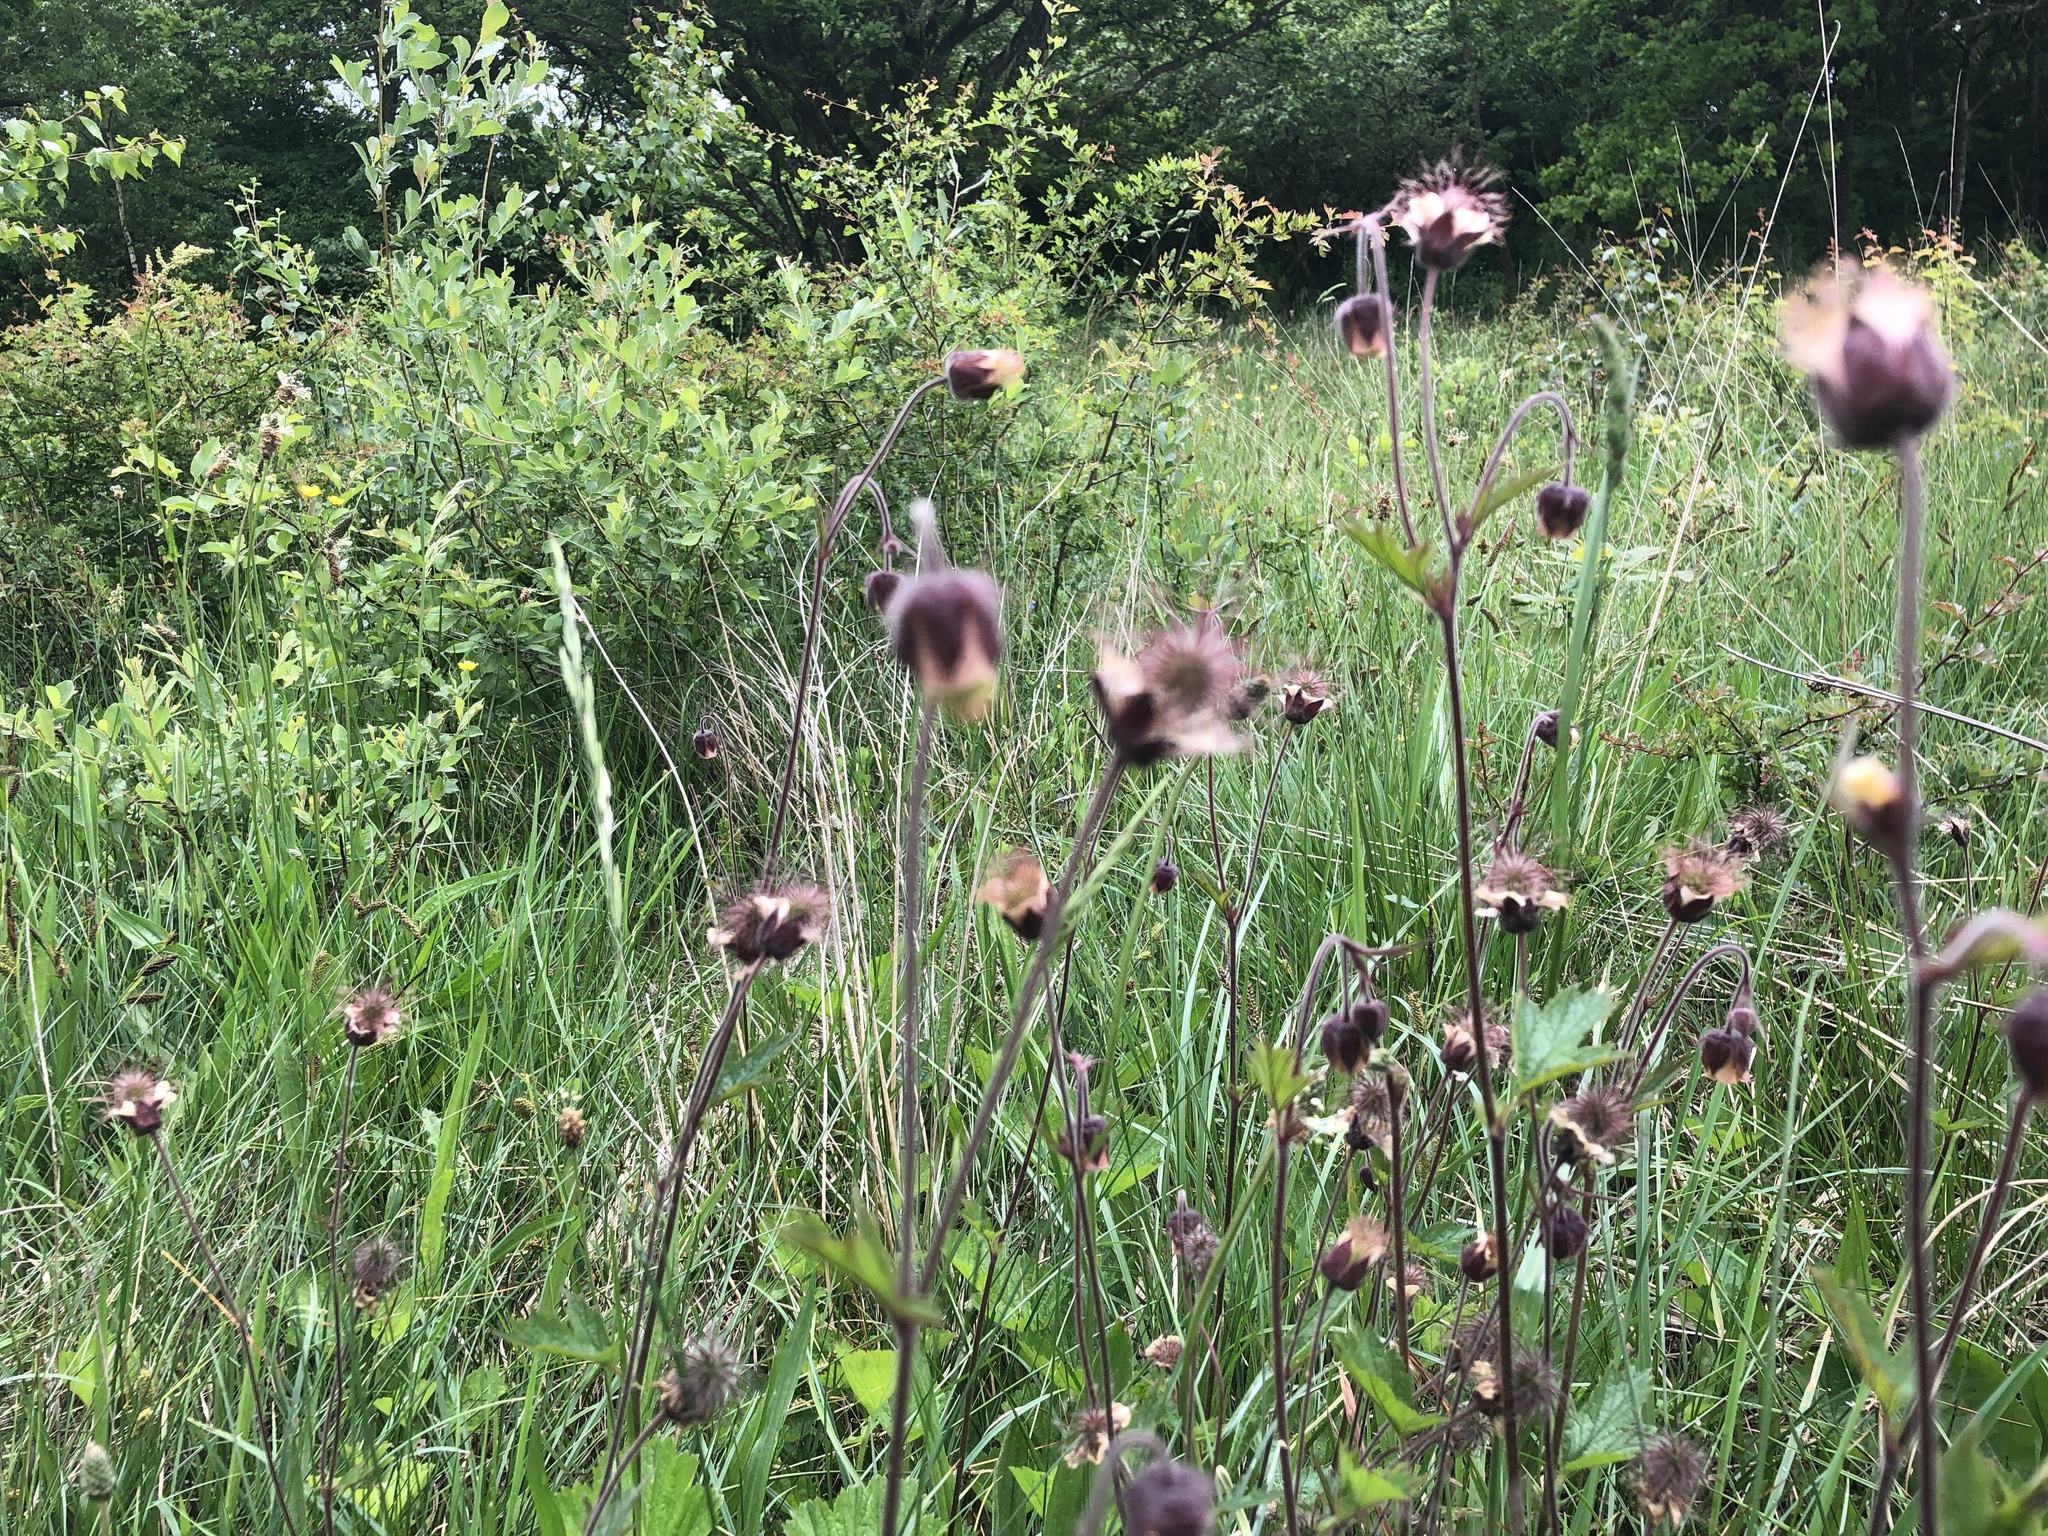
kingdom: Plantae
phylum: Tracheophyta
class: Magnoliopsida
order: Rosales
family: Rosaceae
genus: Geum
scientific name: Geum rivale
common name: Water avens
